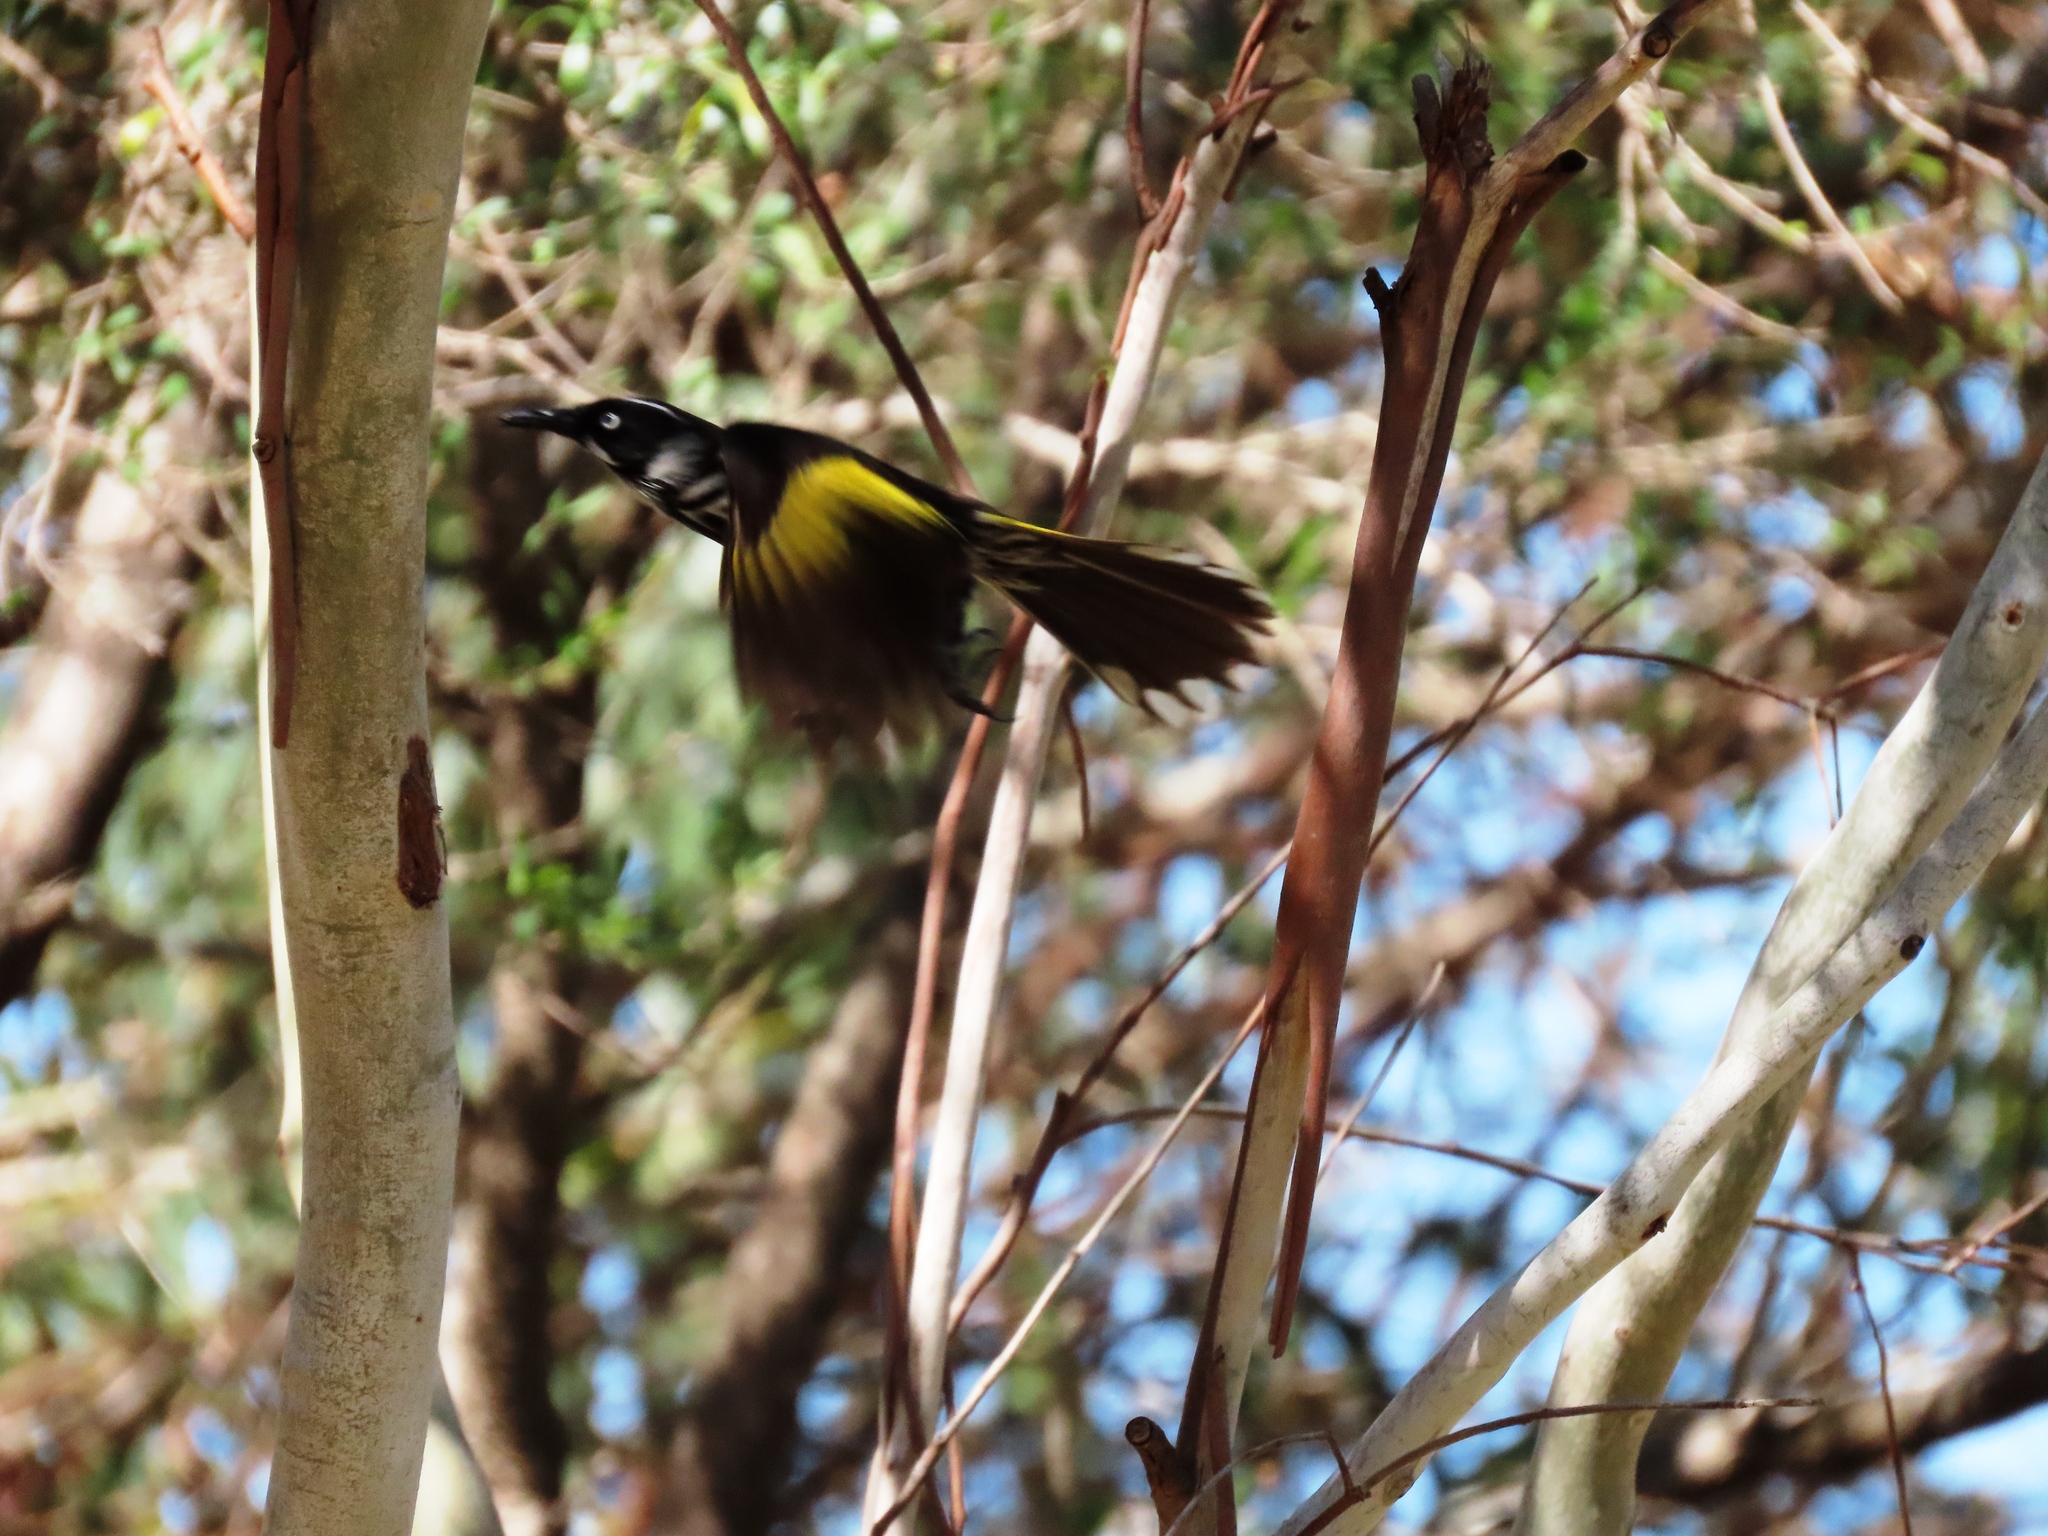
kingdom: Animalia
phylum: Chordata
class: Aves
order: Passeriformes
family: Meliphagidae
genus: Phylidonyris
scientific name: Phylidonyris novaehollandiae
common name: New holland honeyeater
